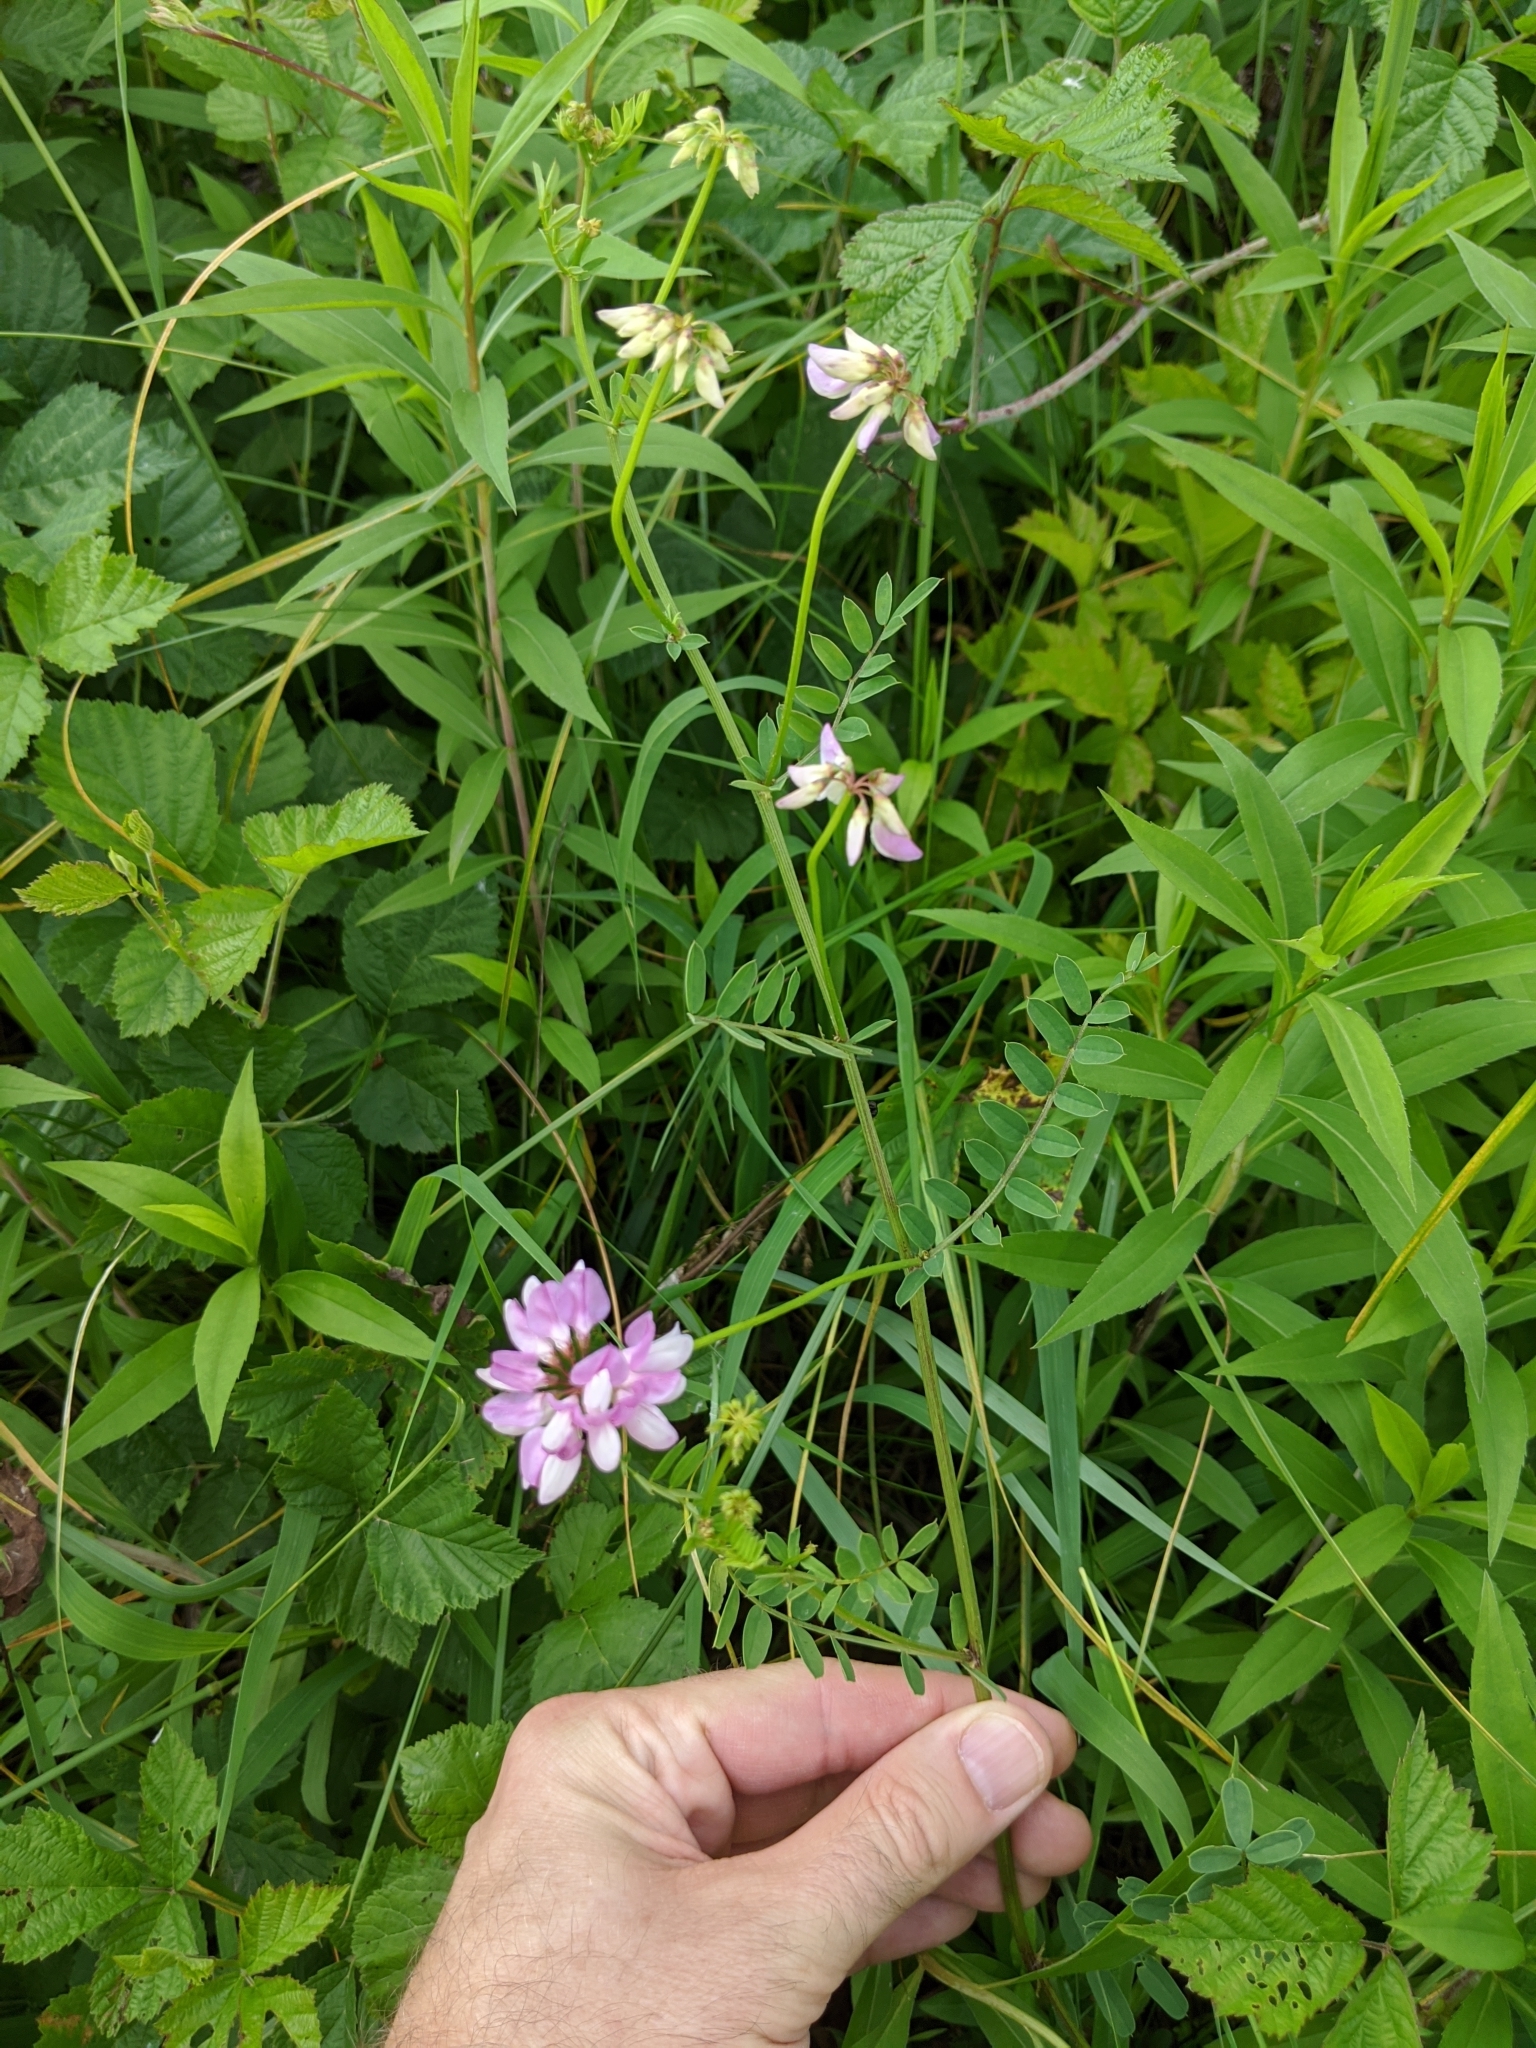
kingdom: Plantae
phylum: Tracheophyta
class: Magnoliopsida
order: Fabales
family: Fabaceae
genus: Coronilla
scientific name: Coronilla varia
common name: Crownvetch
